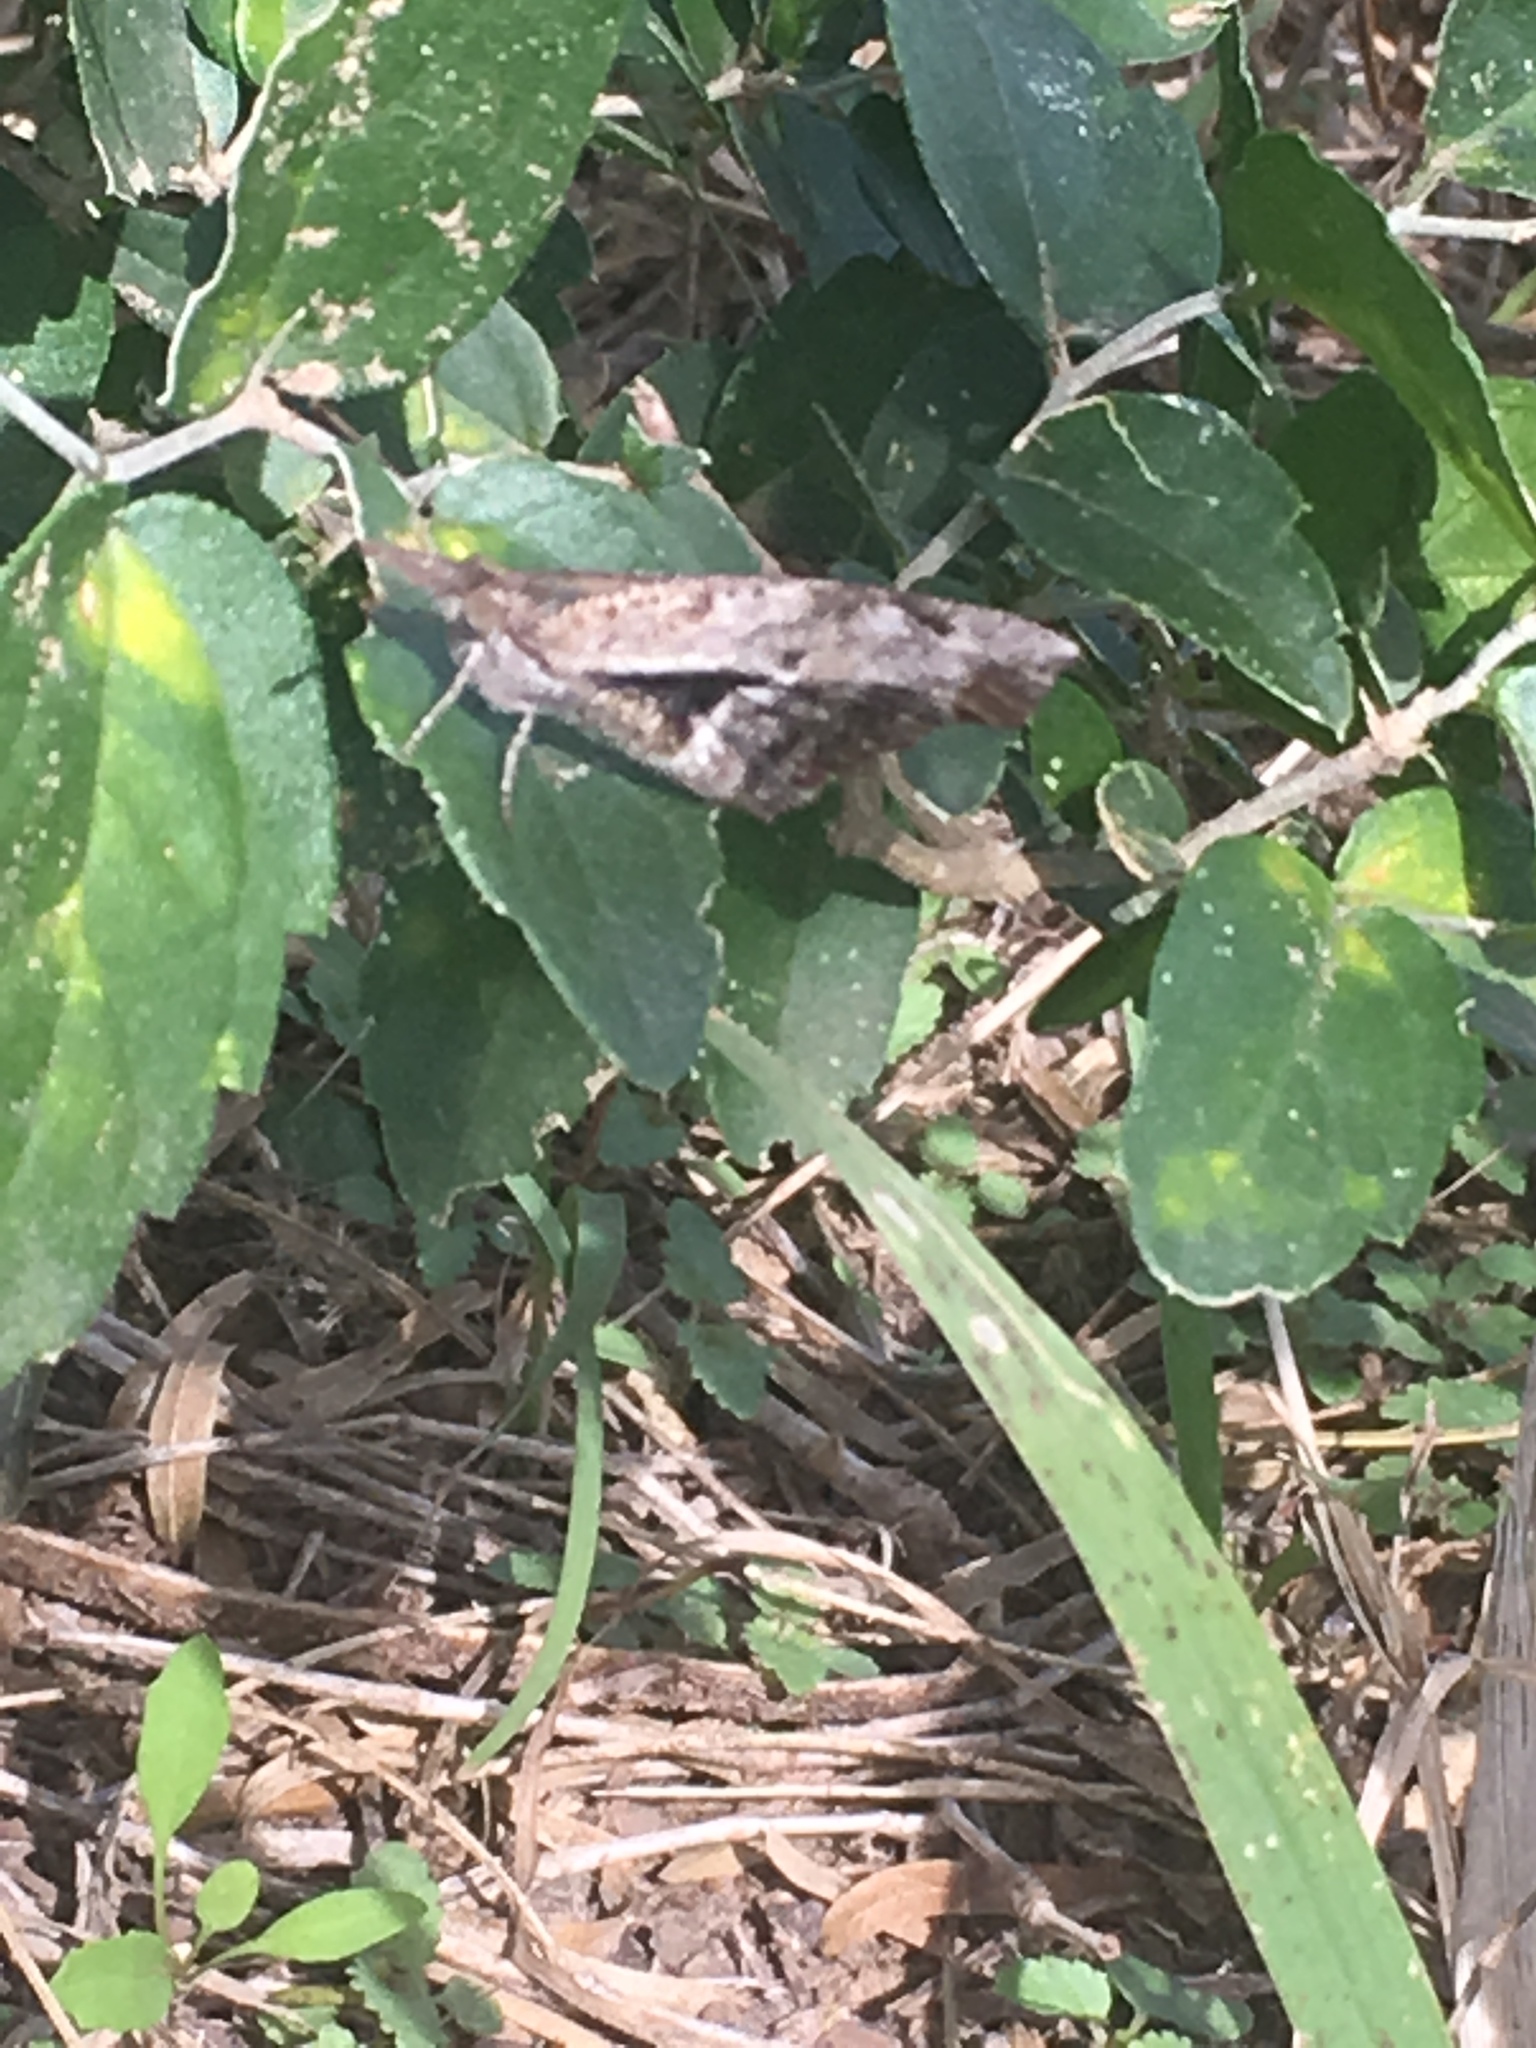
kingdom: Animalia
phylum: Arthropoda
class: Insecta
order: Lepidoptera
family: Nymphalidae
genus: Libytheana
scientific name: Libytheana carinenta
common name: American snout
